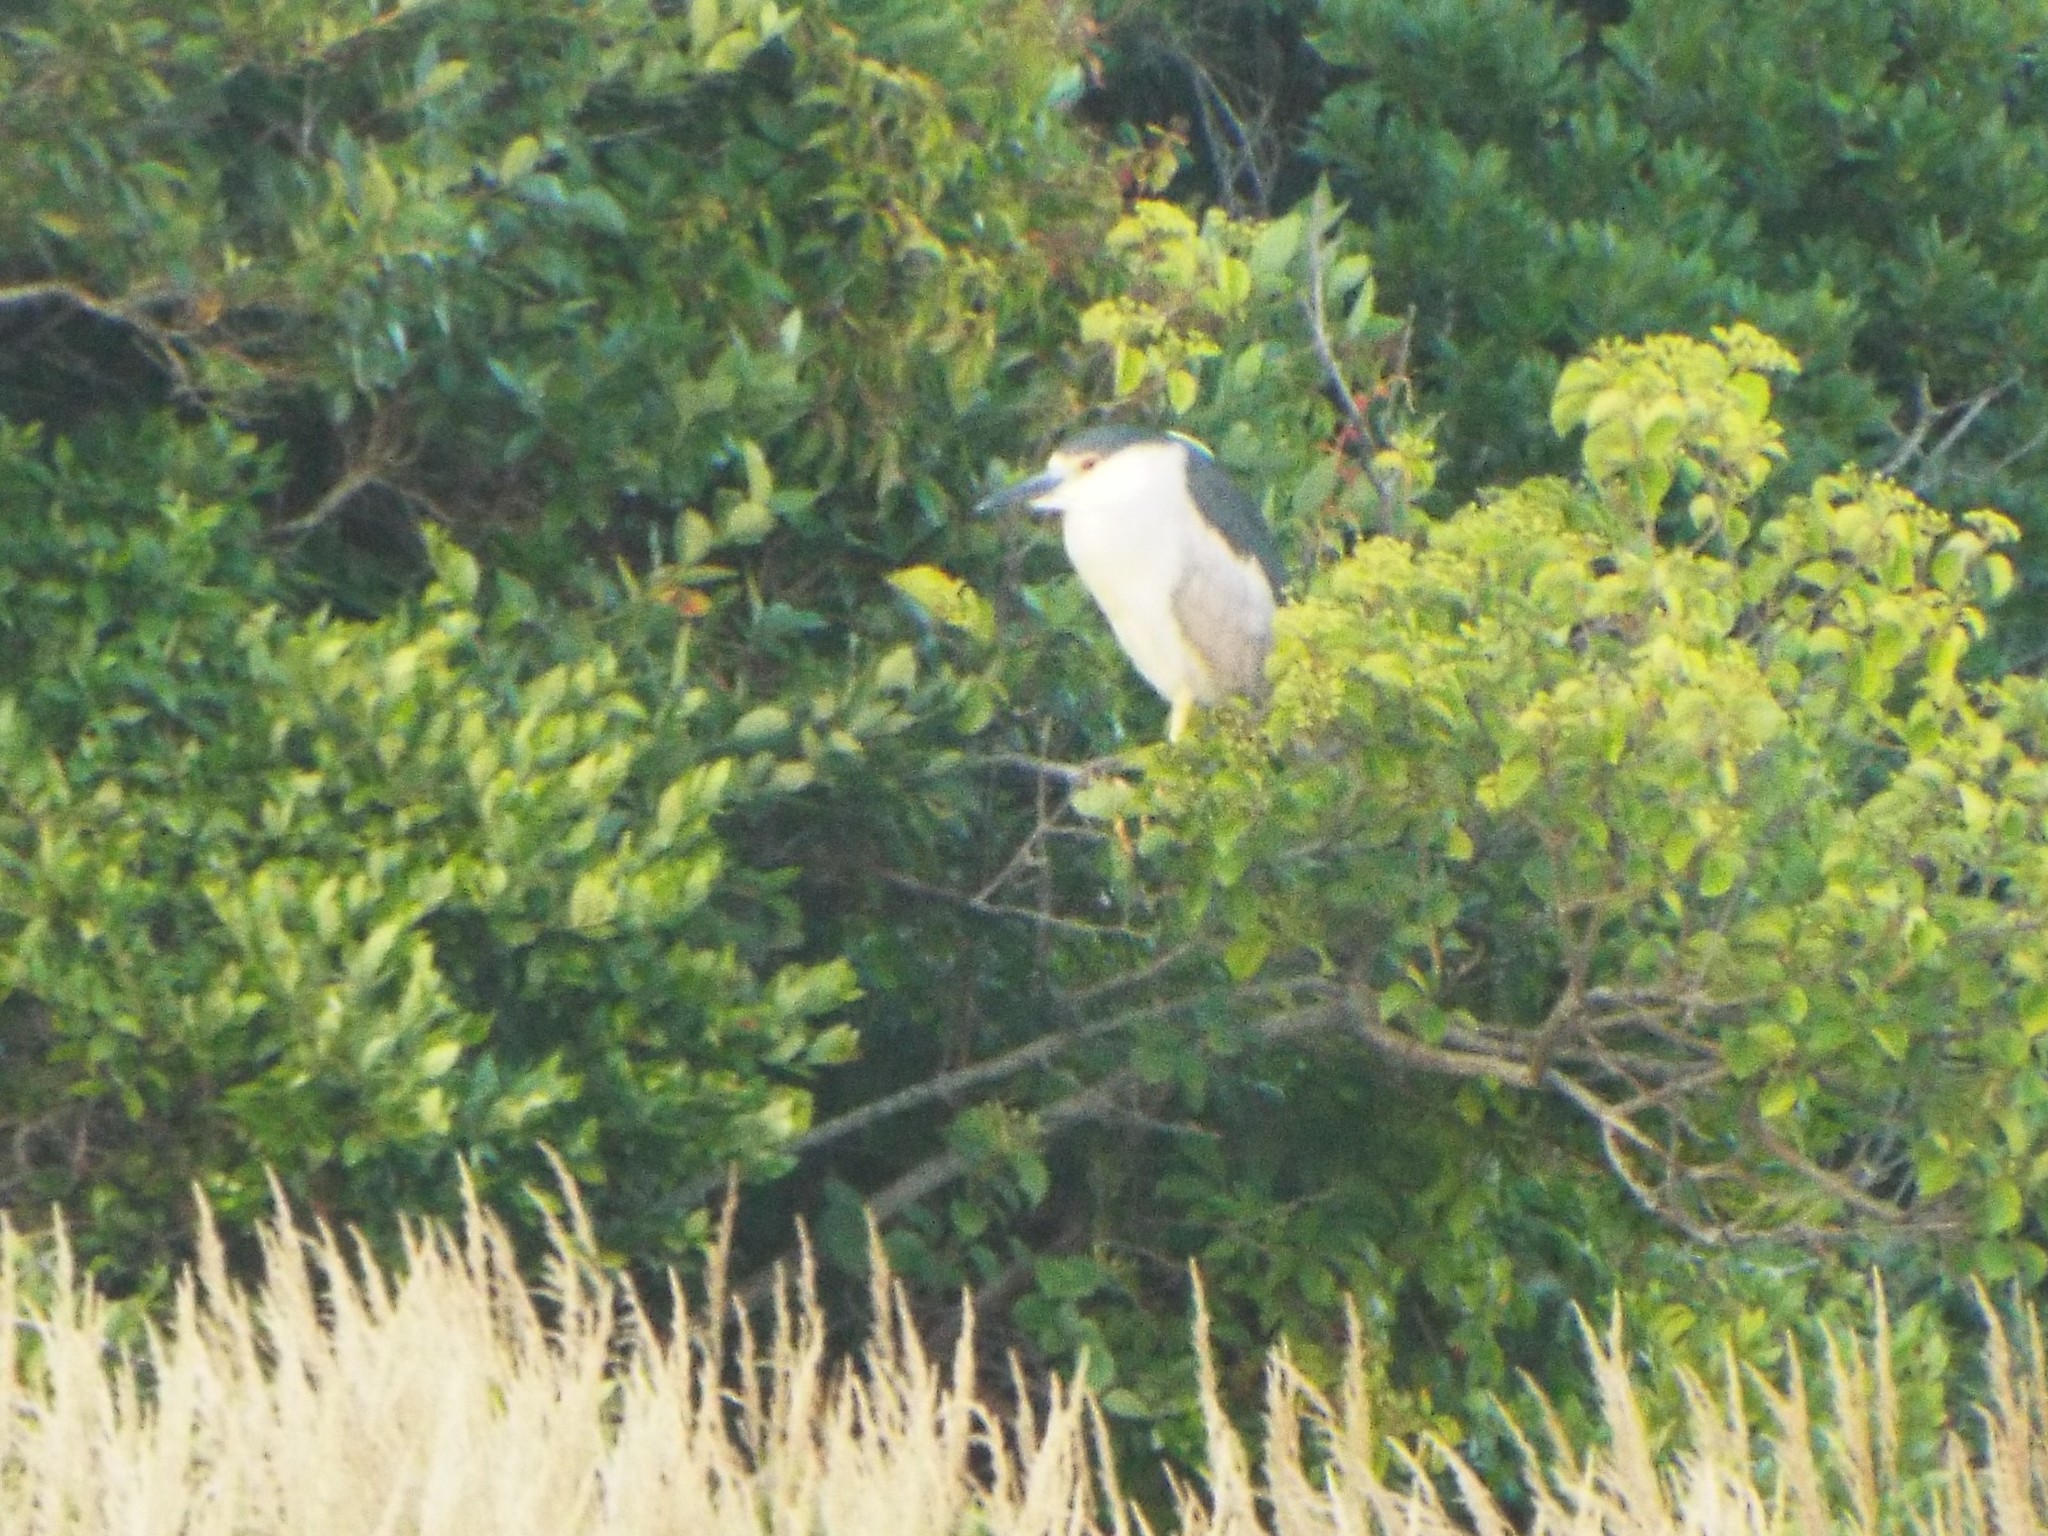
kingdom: Animalia
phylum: Chordata
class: Aves
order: Pelecaniformes
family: Ardeidae
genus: Nycticorax
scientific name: Nycticorax nycticorax
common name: Black-crowned night heron
